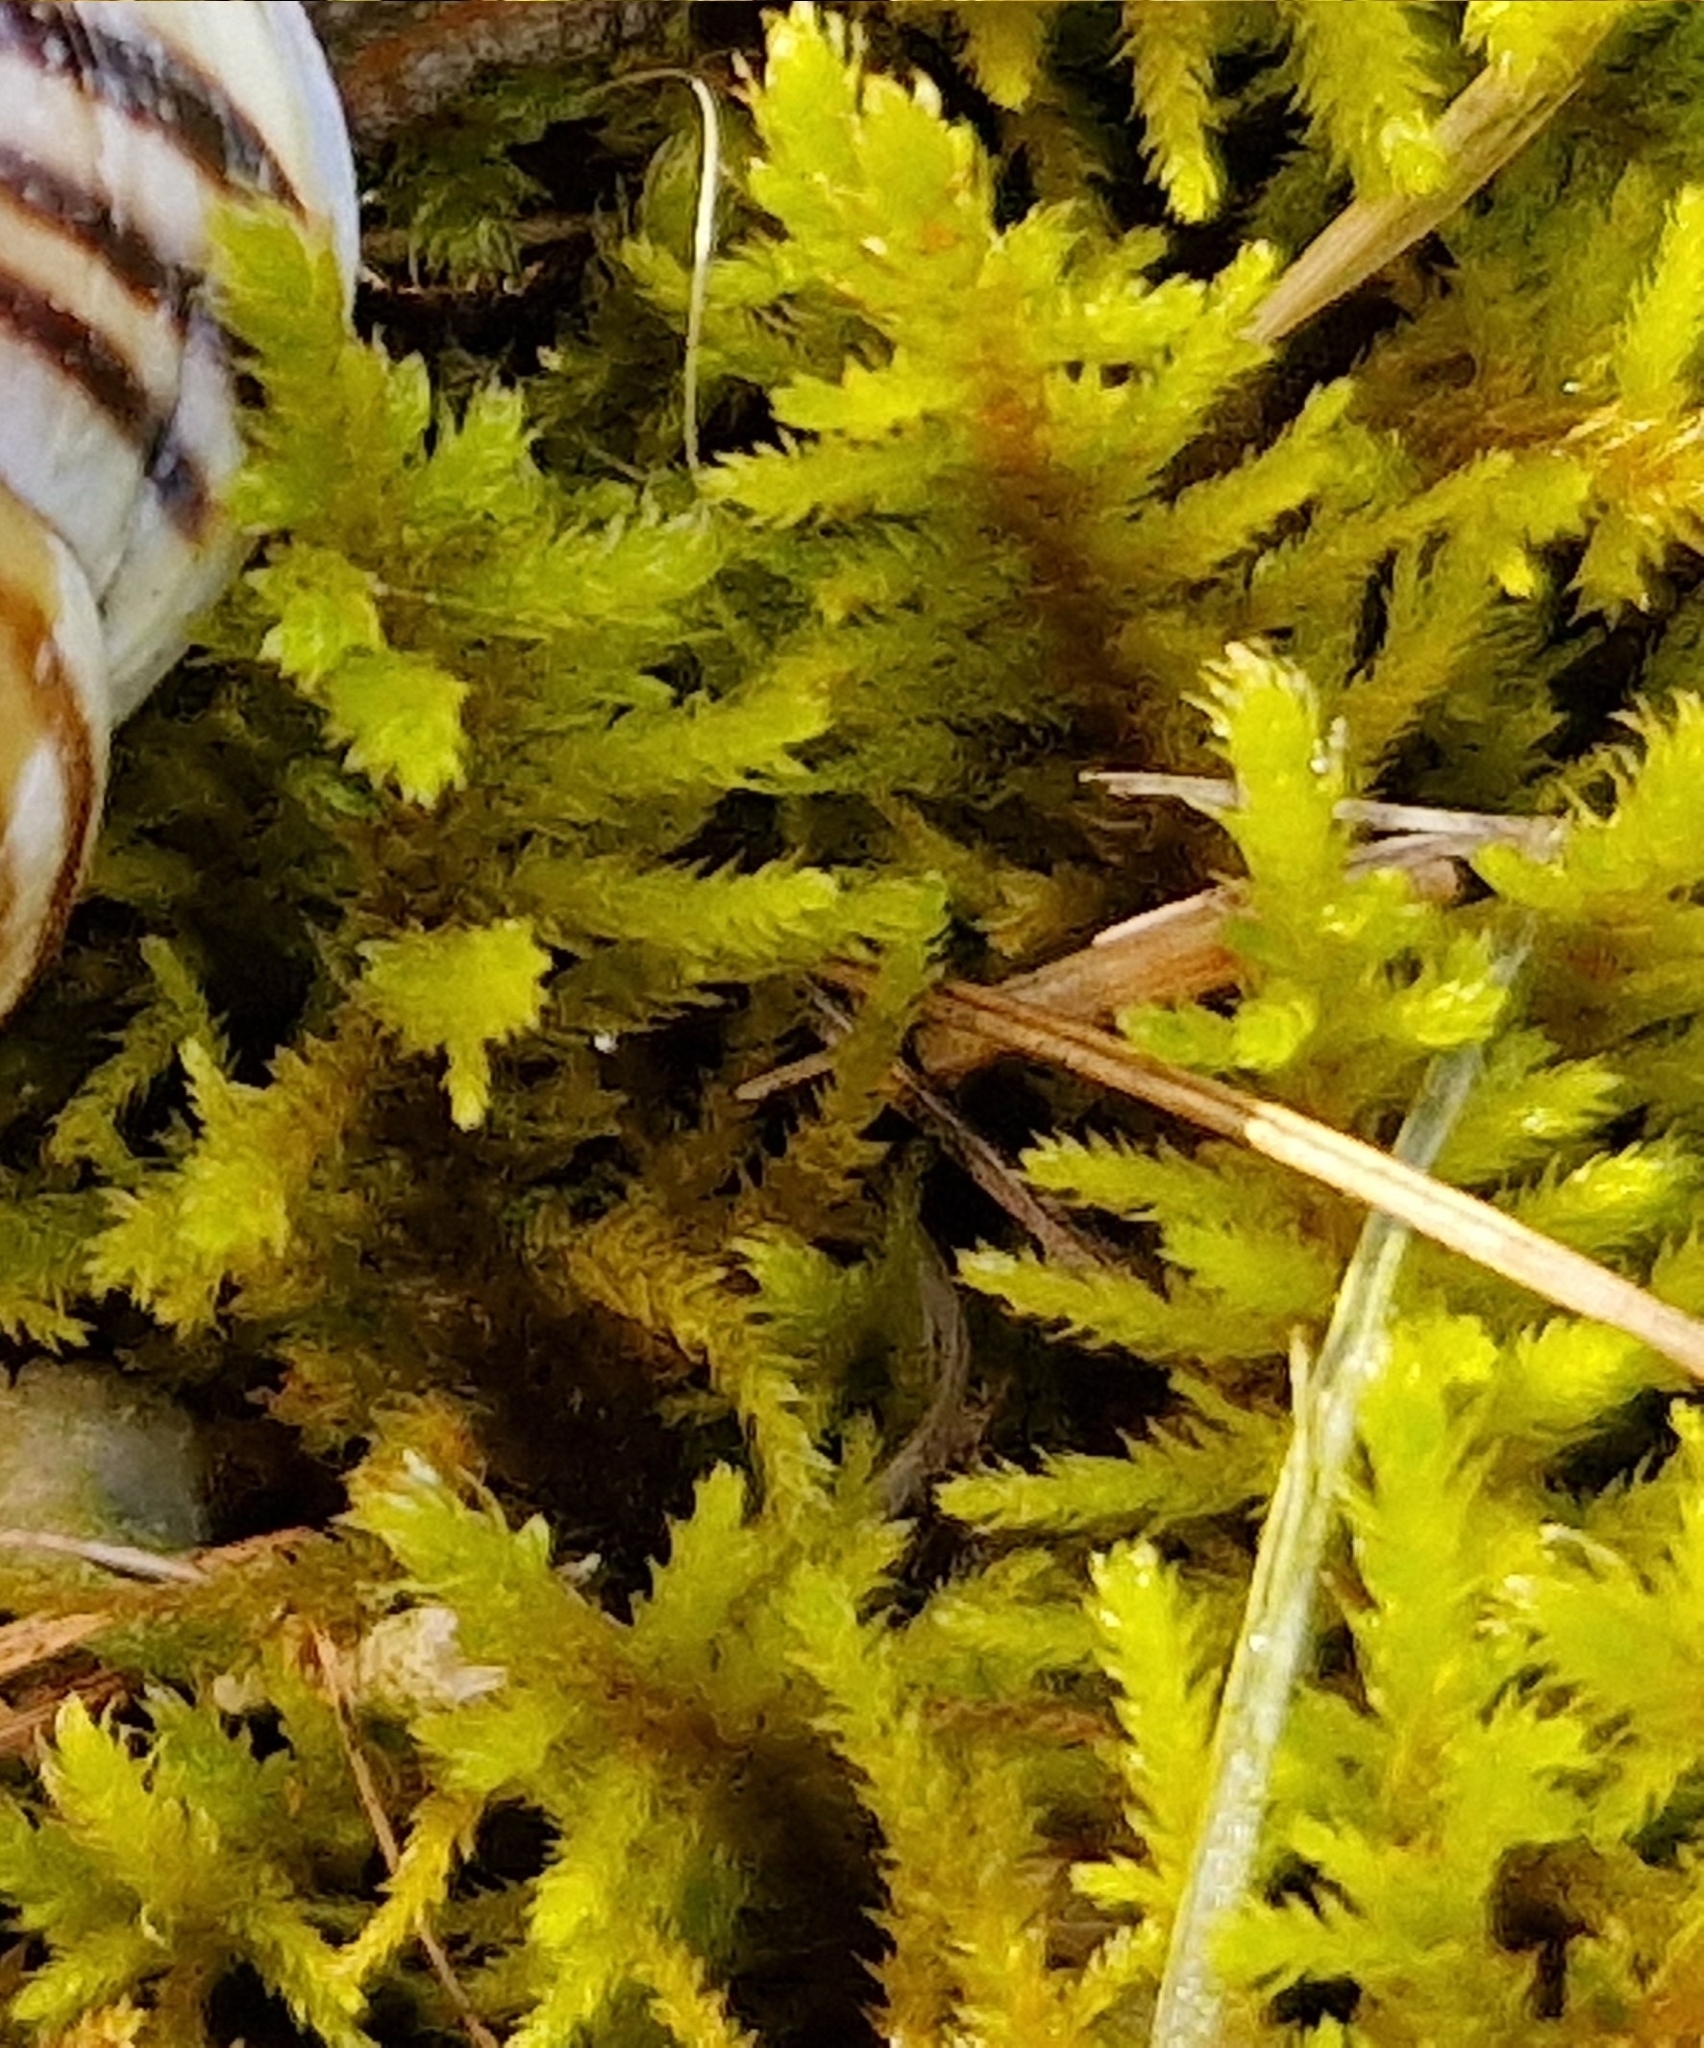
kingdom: Plantae
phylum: Bryophyta
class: Bryopsida
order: Hypnales
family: Thuidiaceae
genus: Abietinella
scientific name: Abietinella abietina
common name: Wiry fern moss
